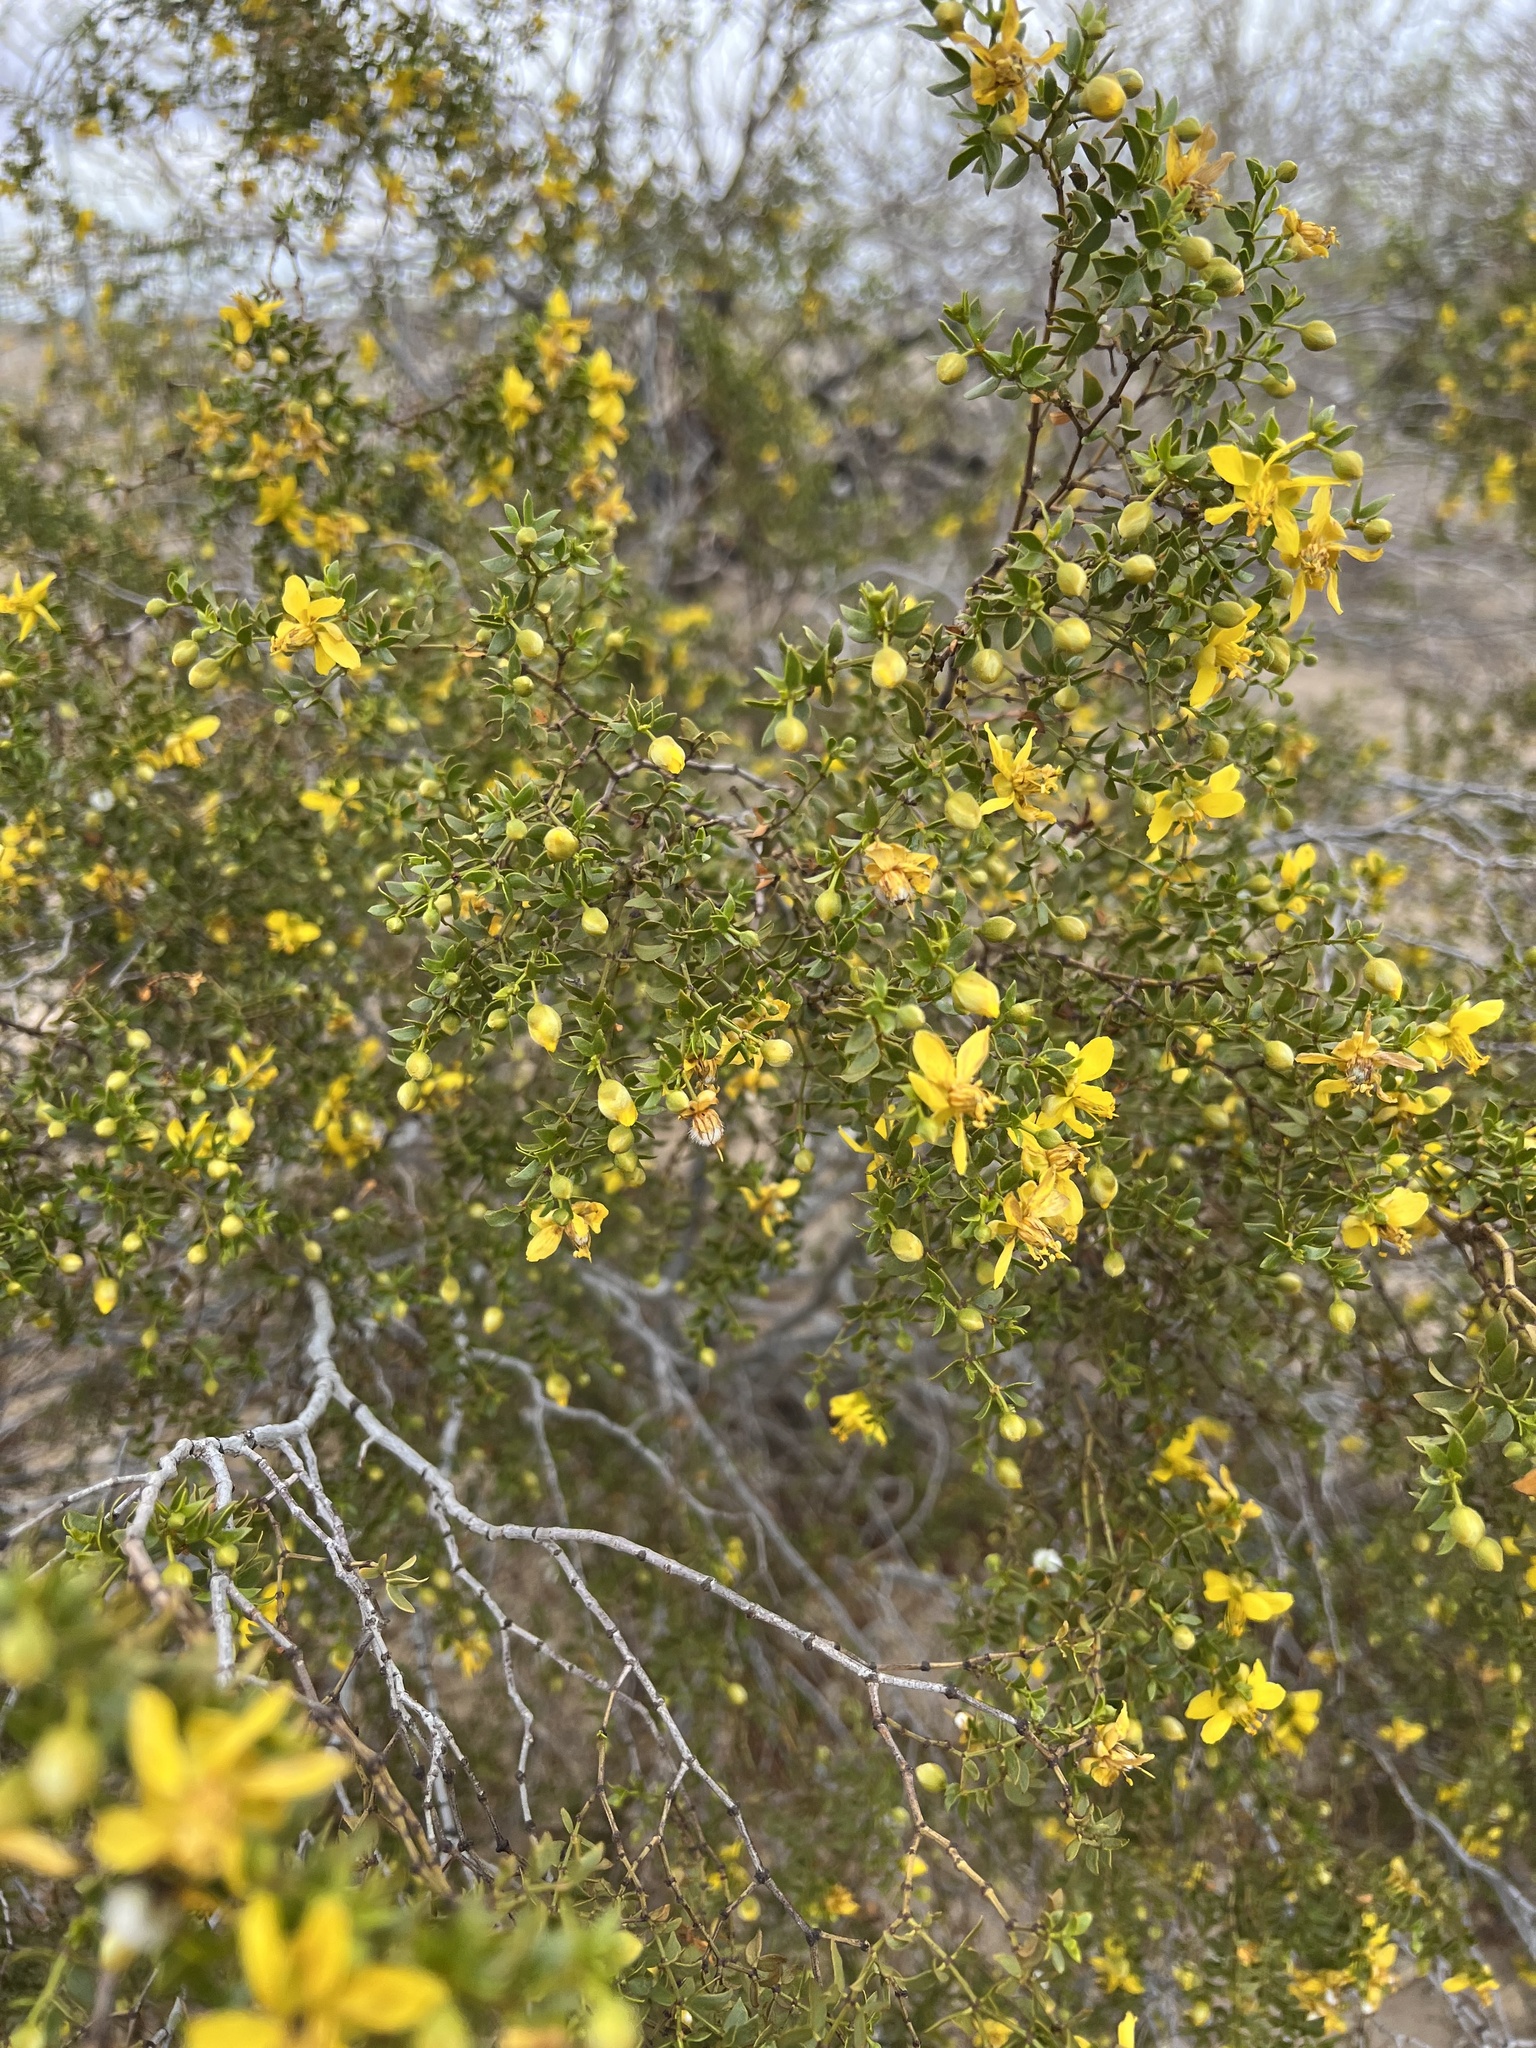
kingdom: Plantae
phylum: Tracheophyta
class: Magnoliopsida
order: Zygophyllales
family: Zygophyllaceae
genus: Larrea
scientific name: Larrea tridentata
